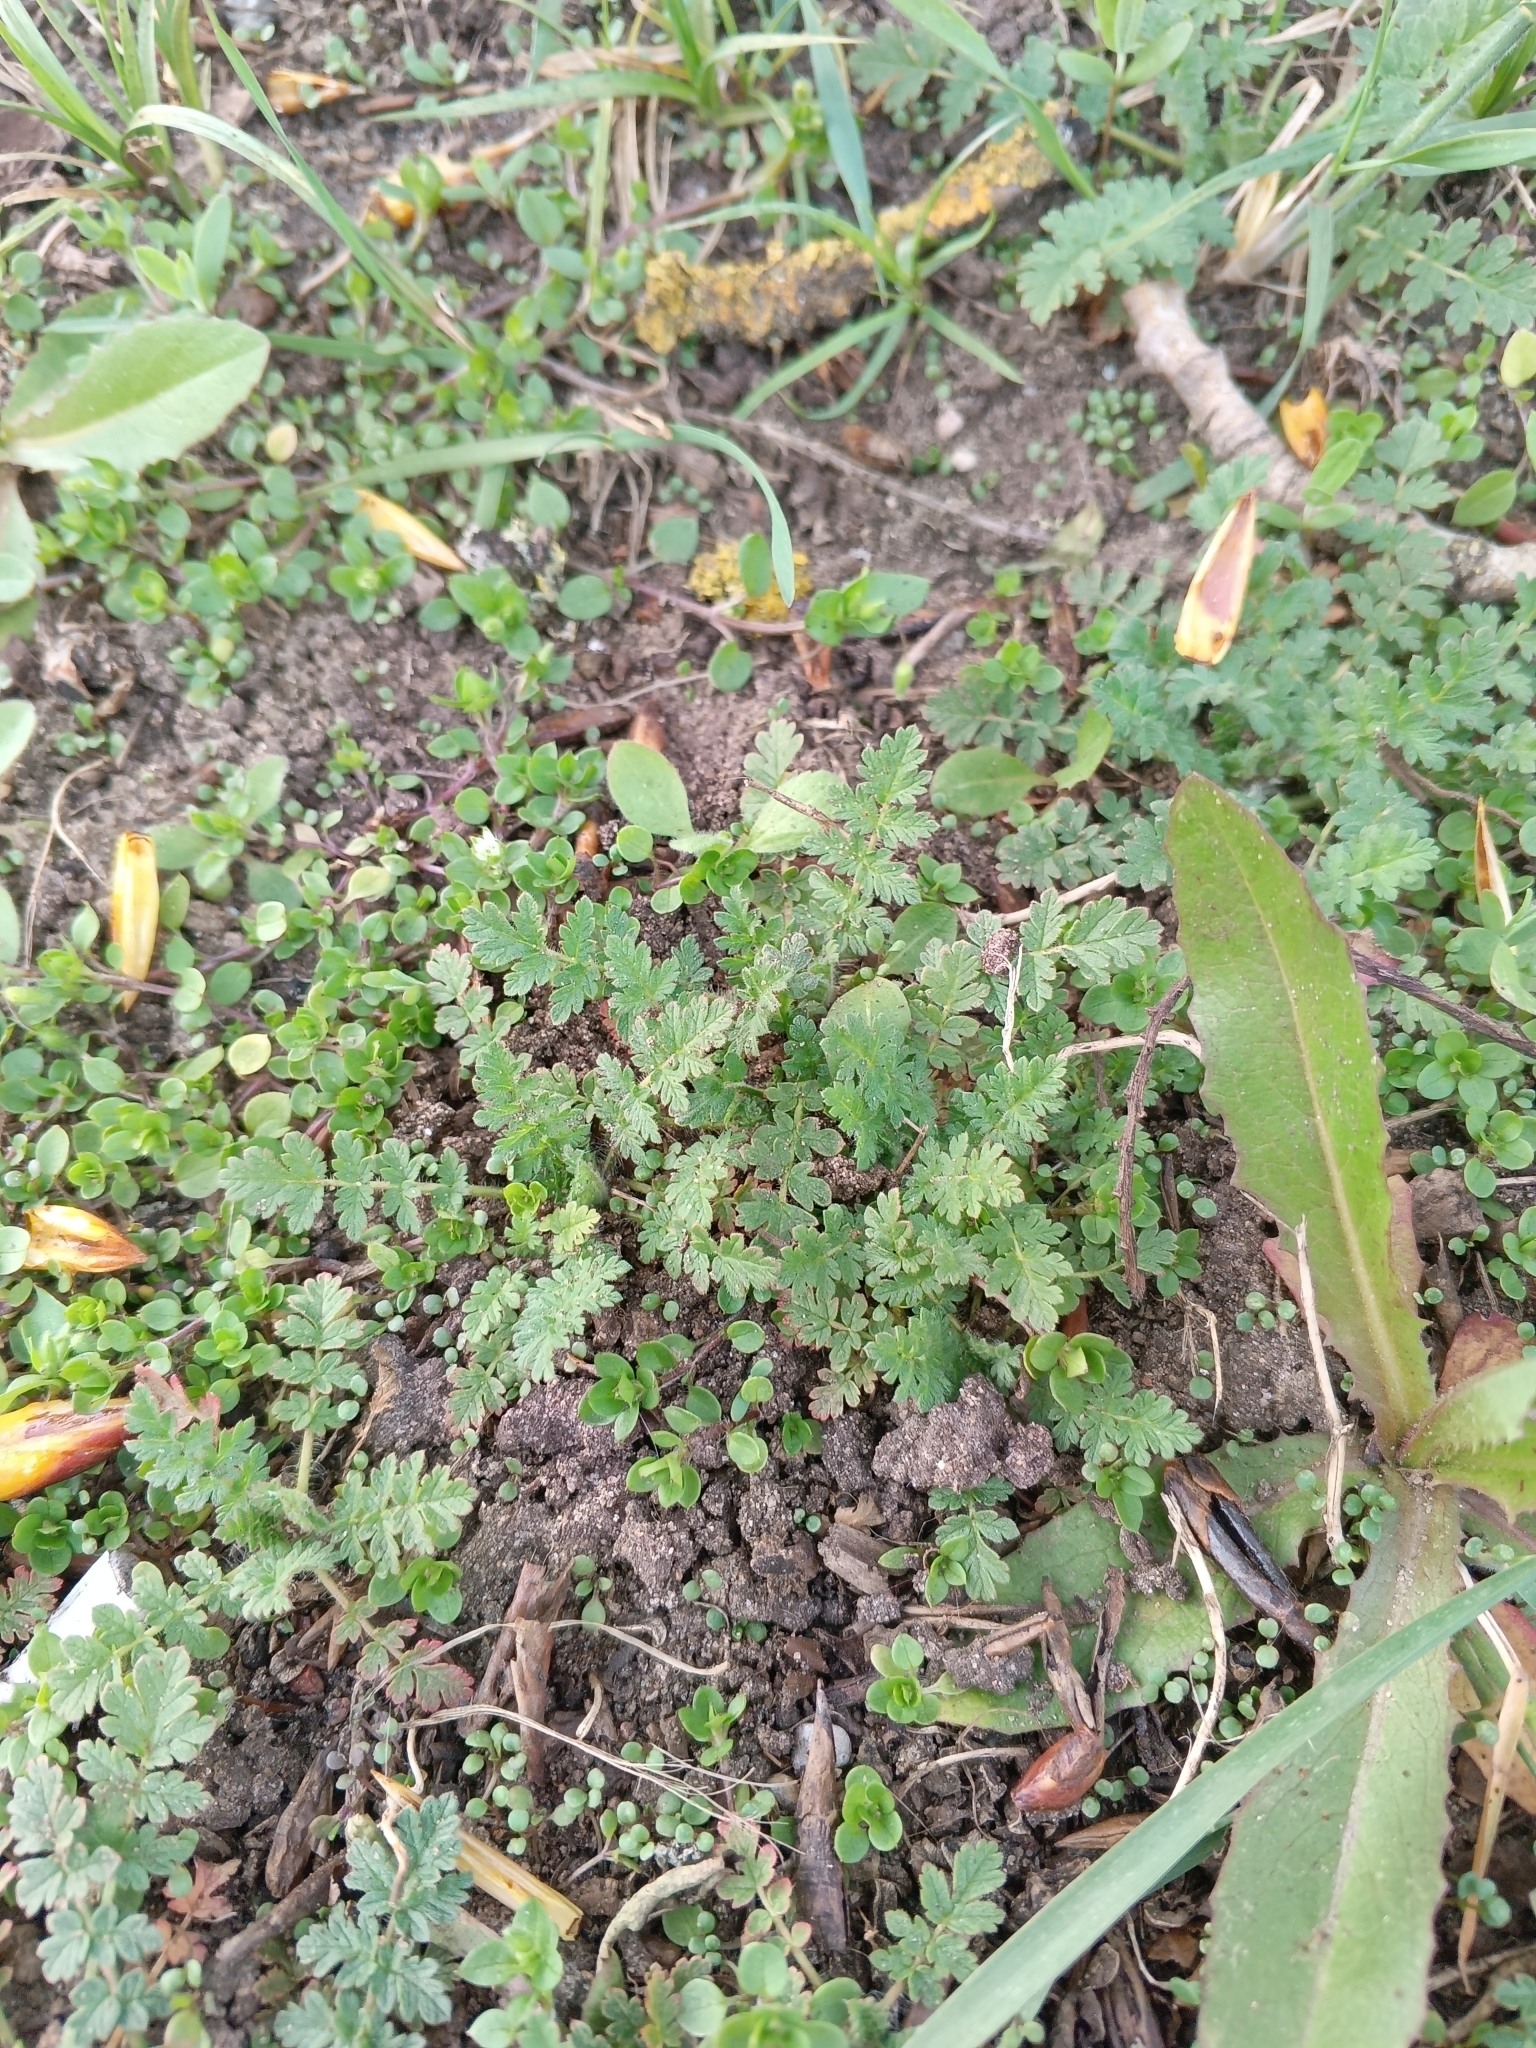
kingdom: Plantae
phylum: Tracheophyta
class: Magnoliopsida
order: Geraniales
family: Geraniaceae
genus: Erodium
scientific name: Erodium cicutarium
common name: Common stork's-bill
